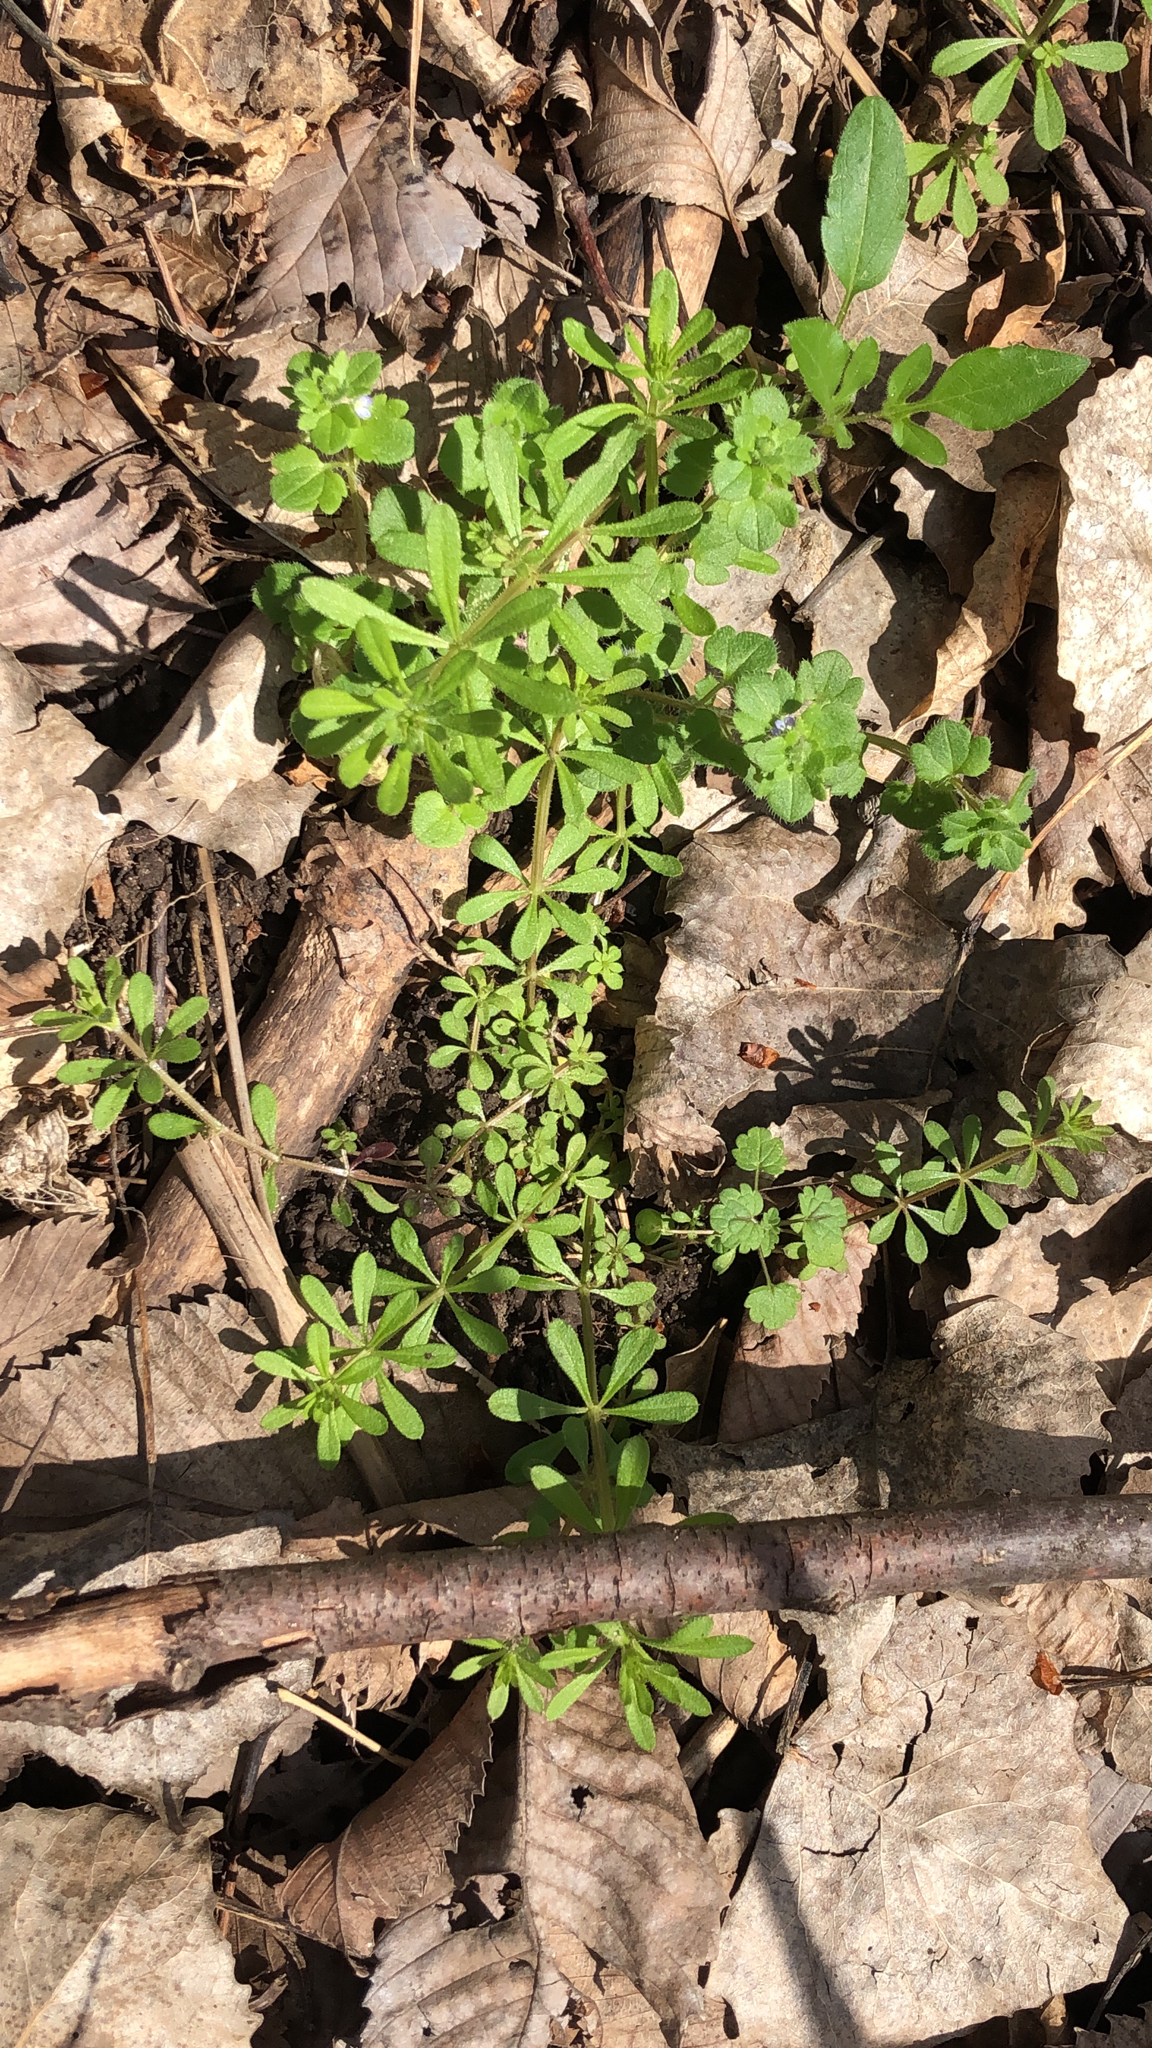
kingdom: Plantae
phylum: Tracheophyta
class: Magnoliopsida
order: Gentianales
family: Rubiaceae
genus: Galium
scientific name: Galium aparine
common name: Cleavers
